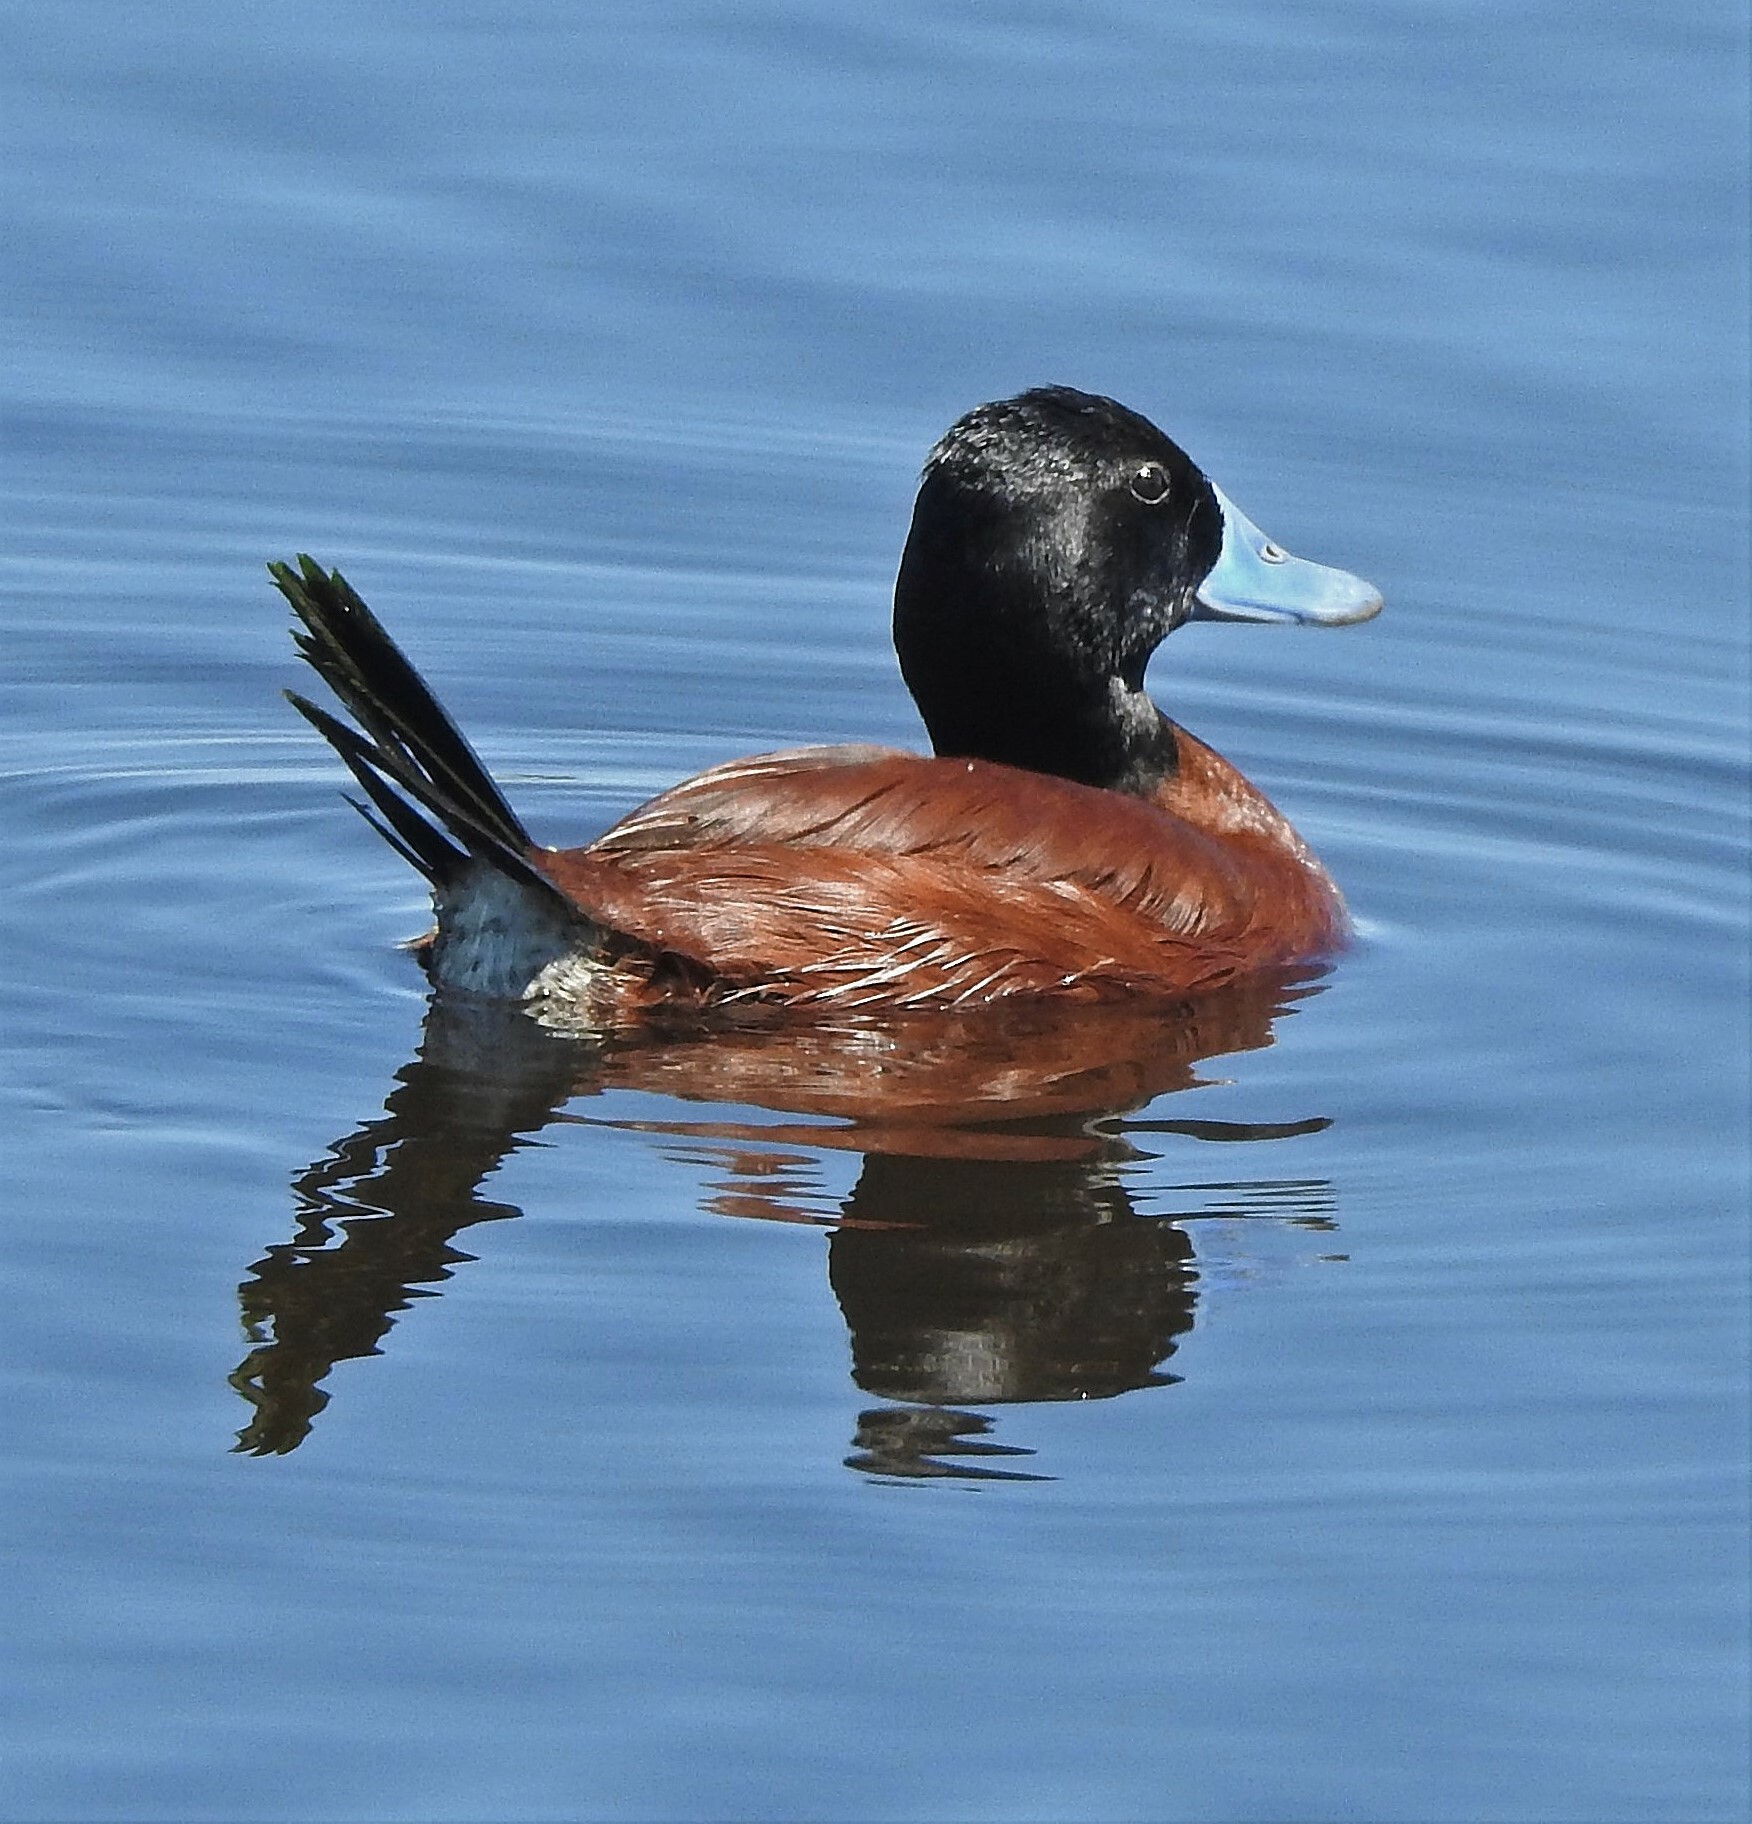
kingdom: Animalia
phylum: Chordata
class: Aves
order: Anseriformes
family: Anatidae
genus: Oxyura
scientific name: Oxyura vittata
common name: Lake duck
